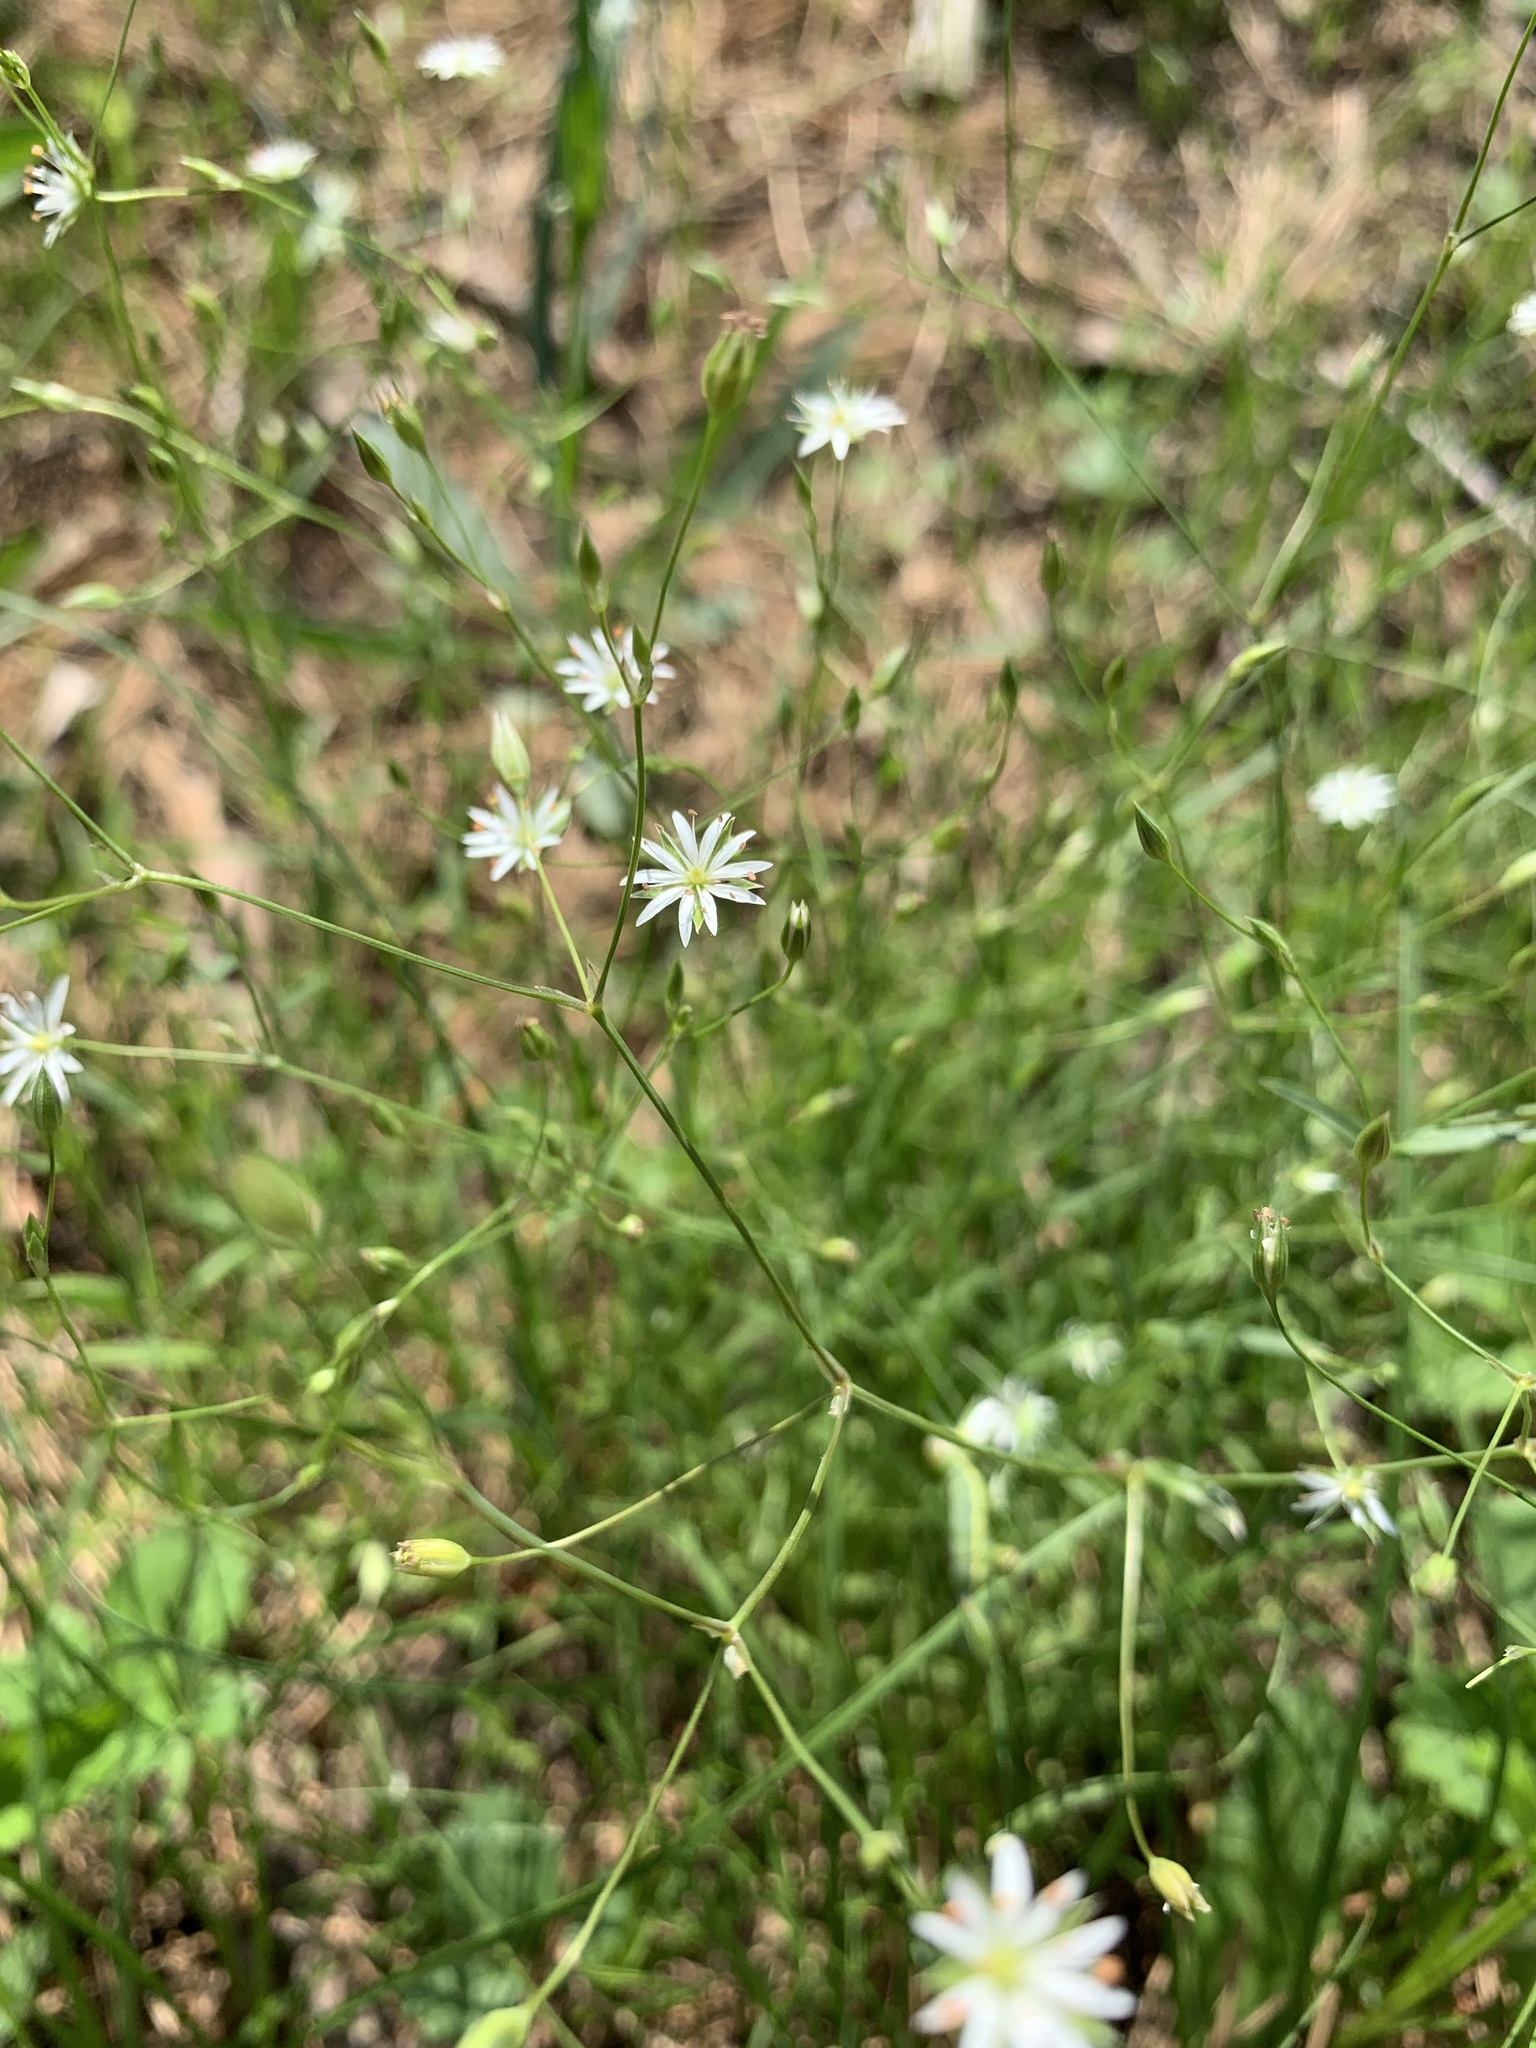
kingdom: Plantae
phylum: Tracheophyta
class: Magnoliopsida
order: Caryophyllales
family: Caryophyllaceae
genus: Stellaria
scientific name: Stellaria graminea
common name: Grass-like starwort
